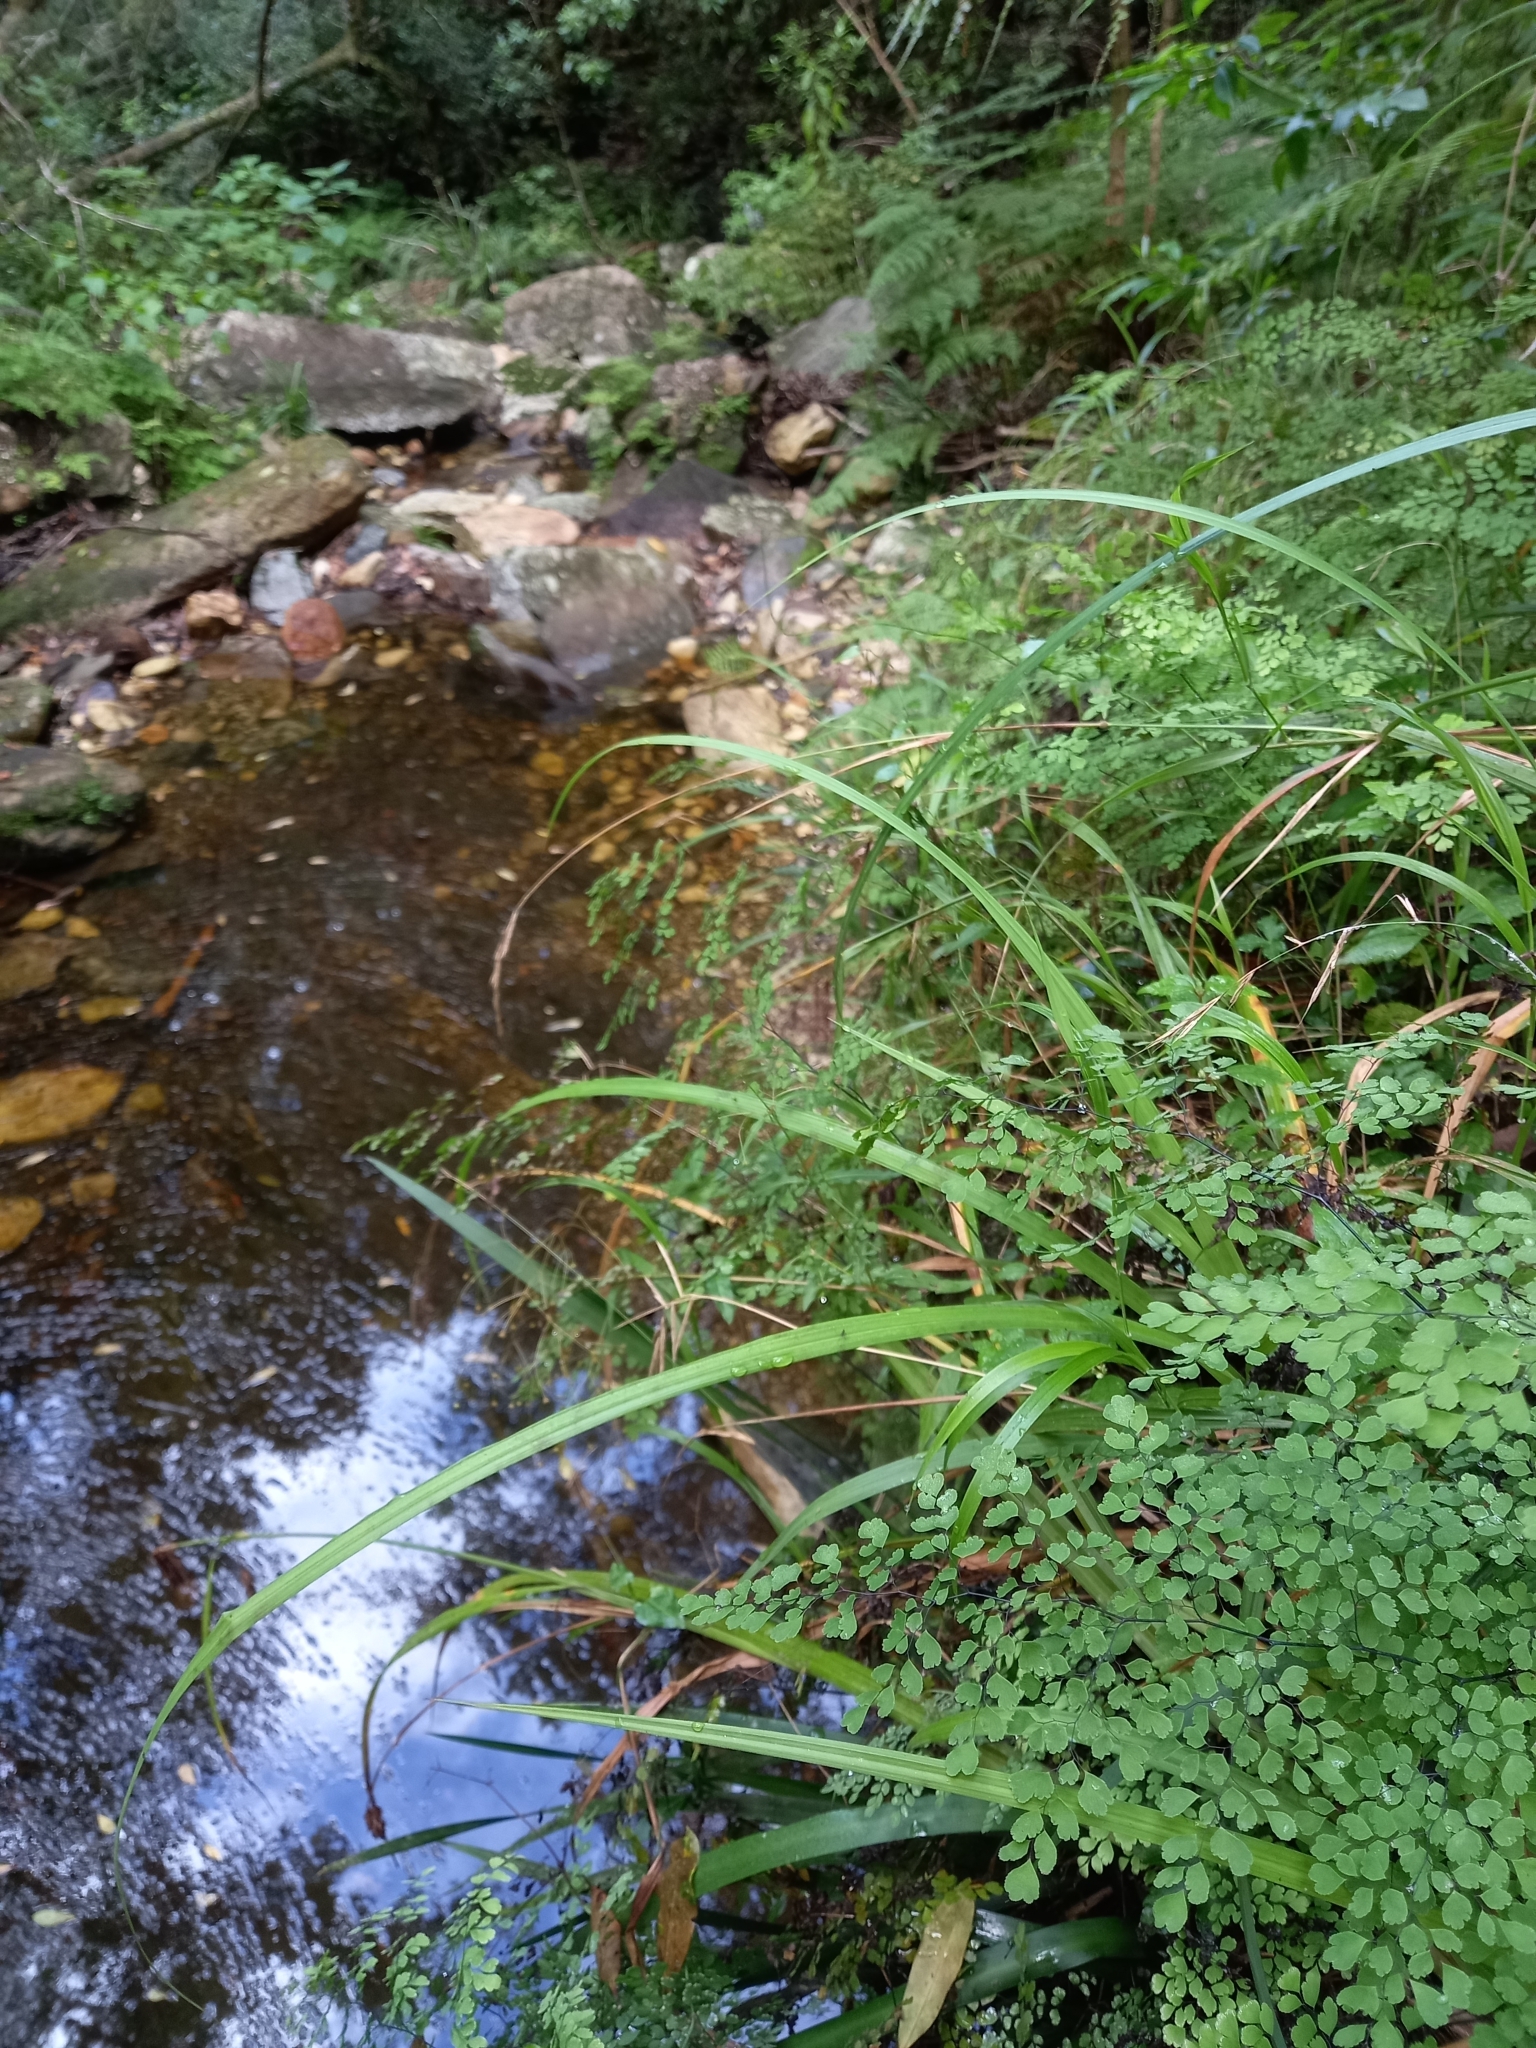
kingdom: Plantae
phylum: Tracheophyta
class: Polypodiopsida
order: Polypodiales
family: Pteridaceae
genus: Adiantum
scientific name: Adiantum capillus-veneris
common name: Maidenhair fern
